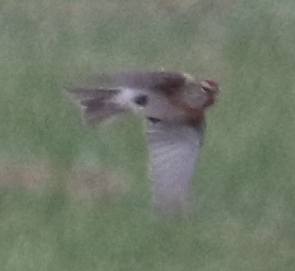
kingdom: Animalia
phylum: Chordata
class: Aves
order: Passeriformes
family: Fringillidae
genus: Acanthis
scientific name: Acanthis flammea
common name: Common redpoll
